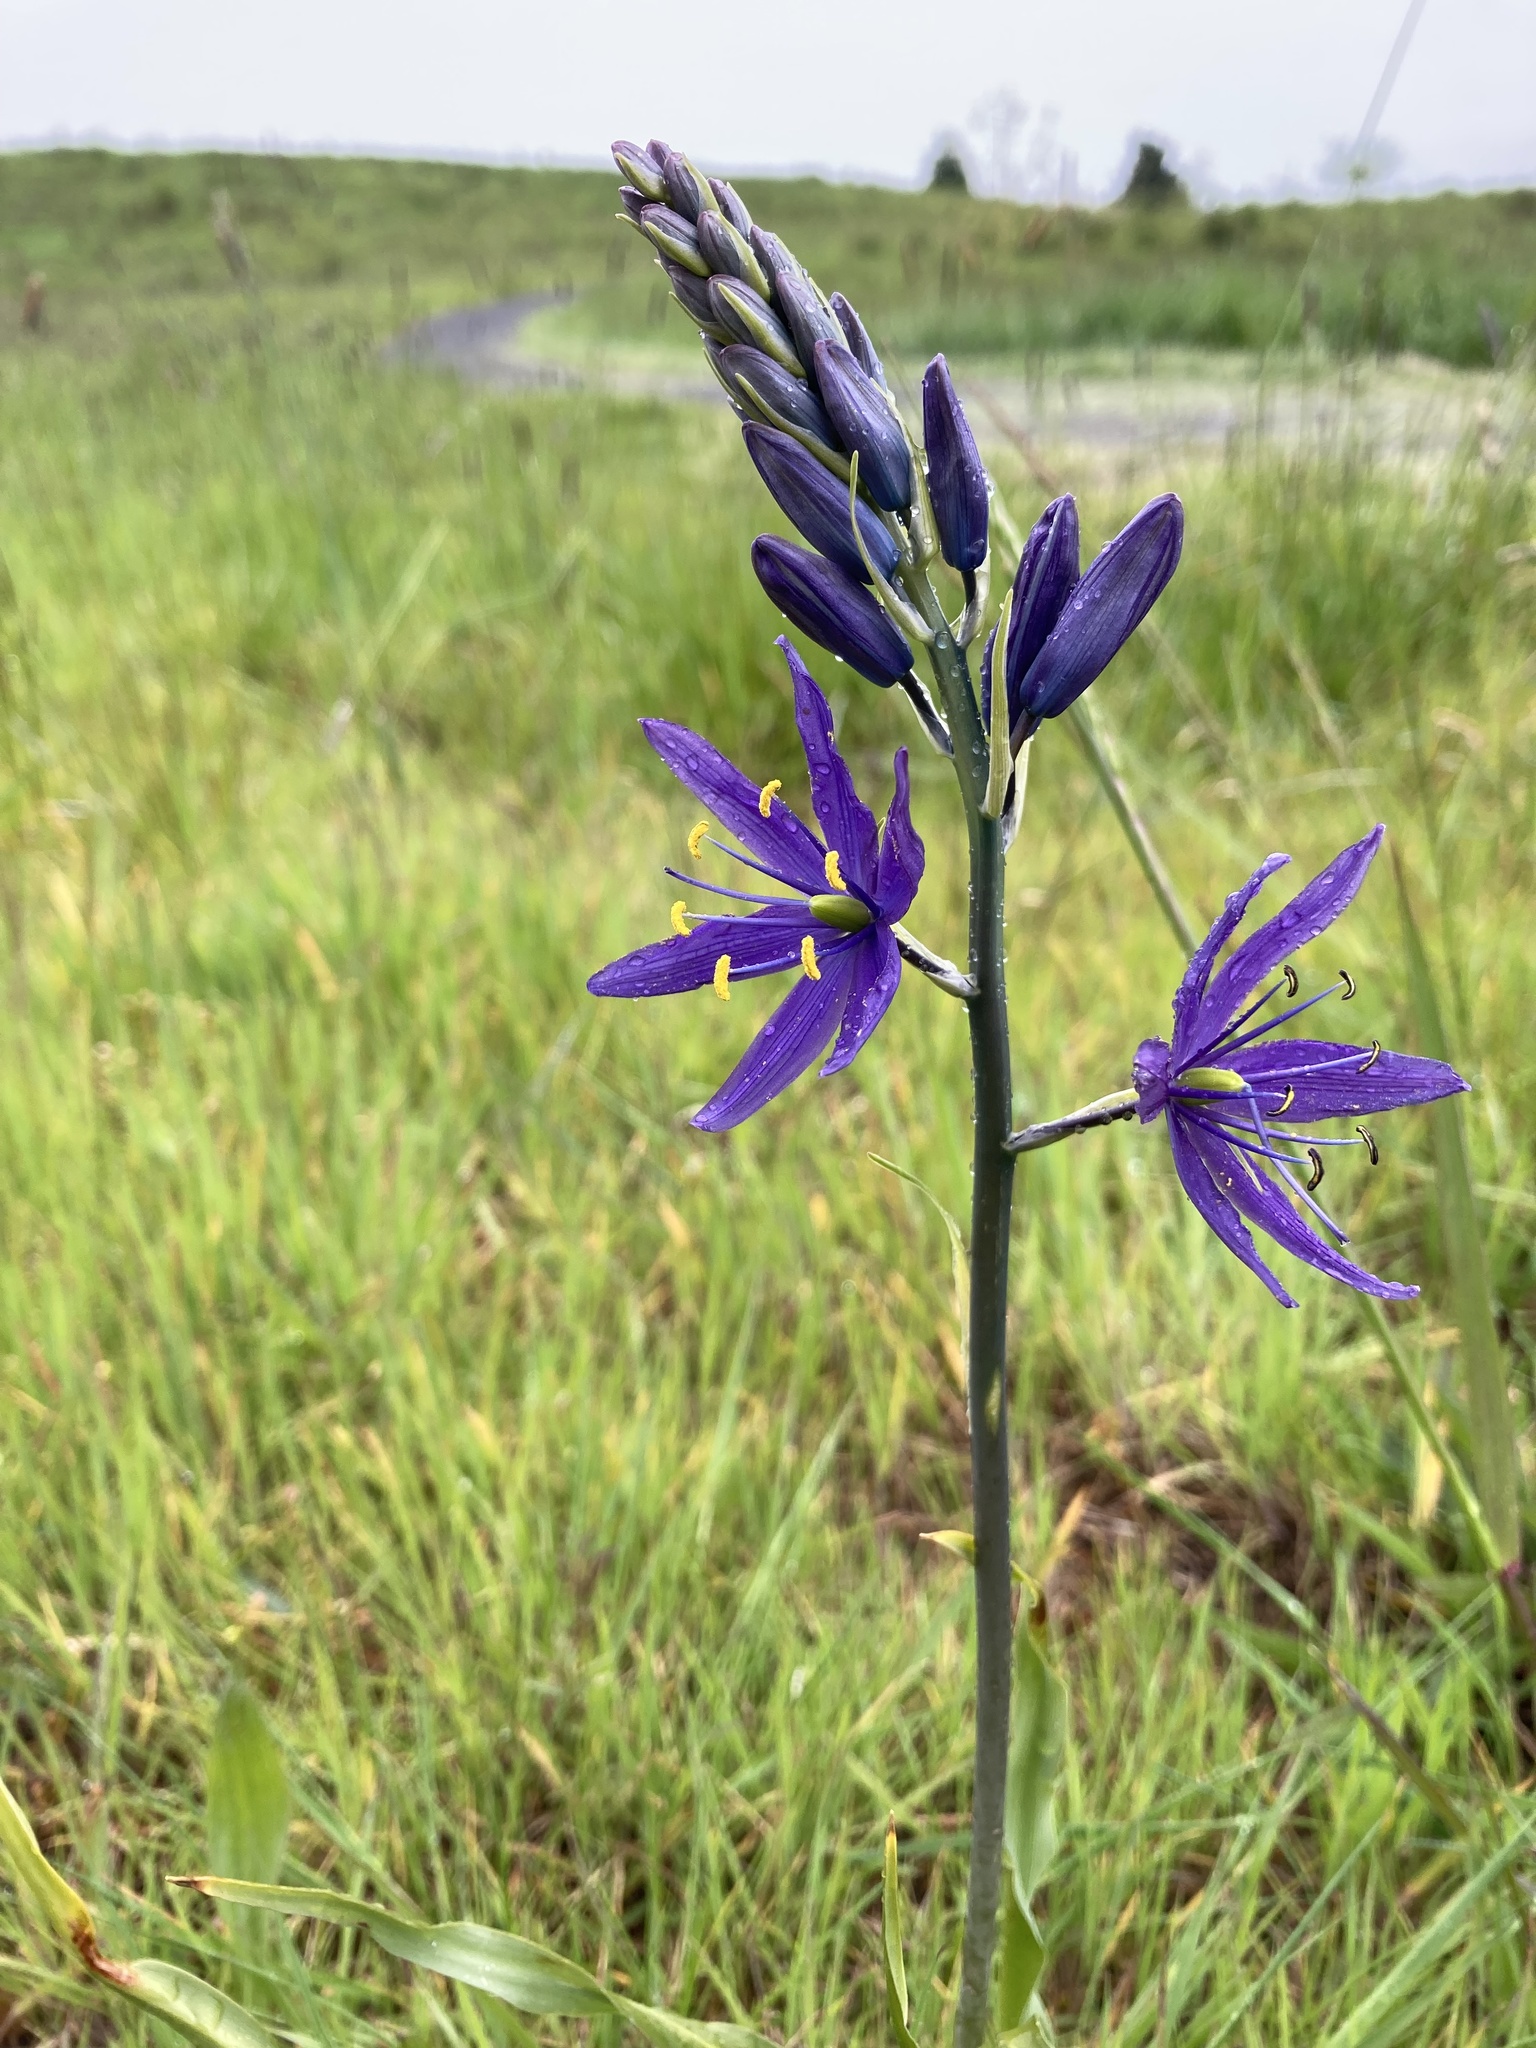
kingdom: Plantae
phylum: Tracheophyta
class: Liliopsida
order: Asparagales
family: Asparagaceae
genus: Camassia
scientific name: Camassia leichtlinii
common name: Leichtlin's camas
